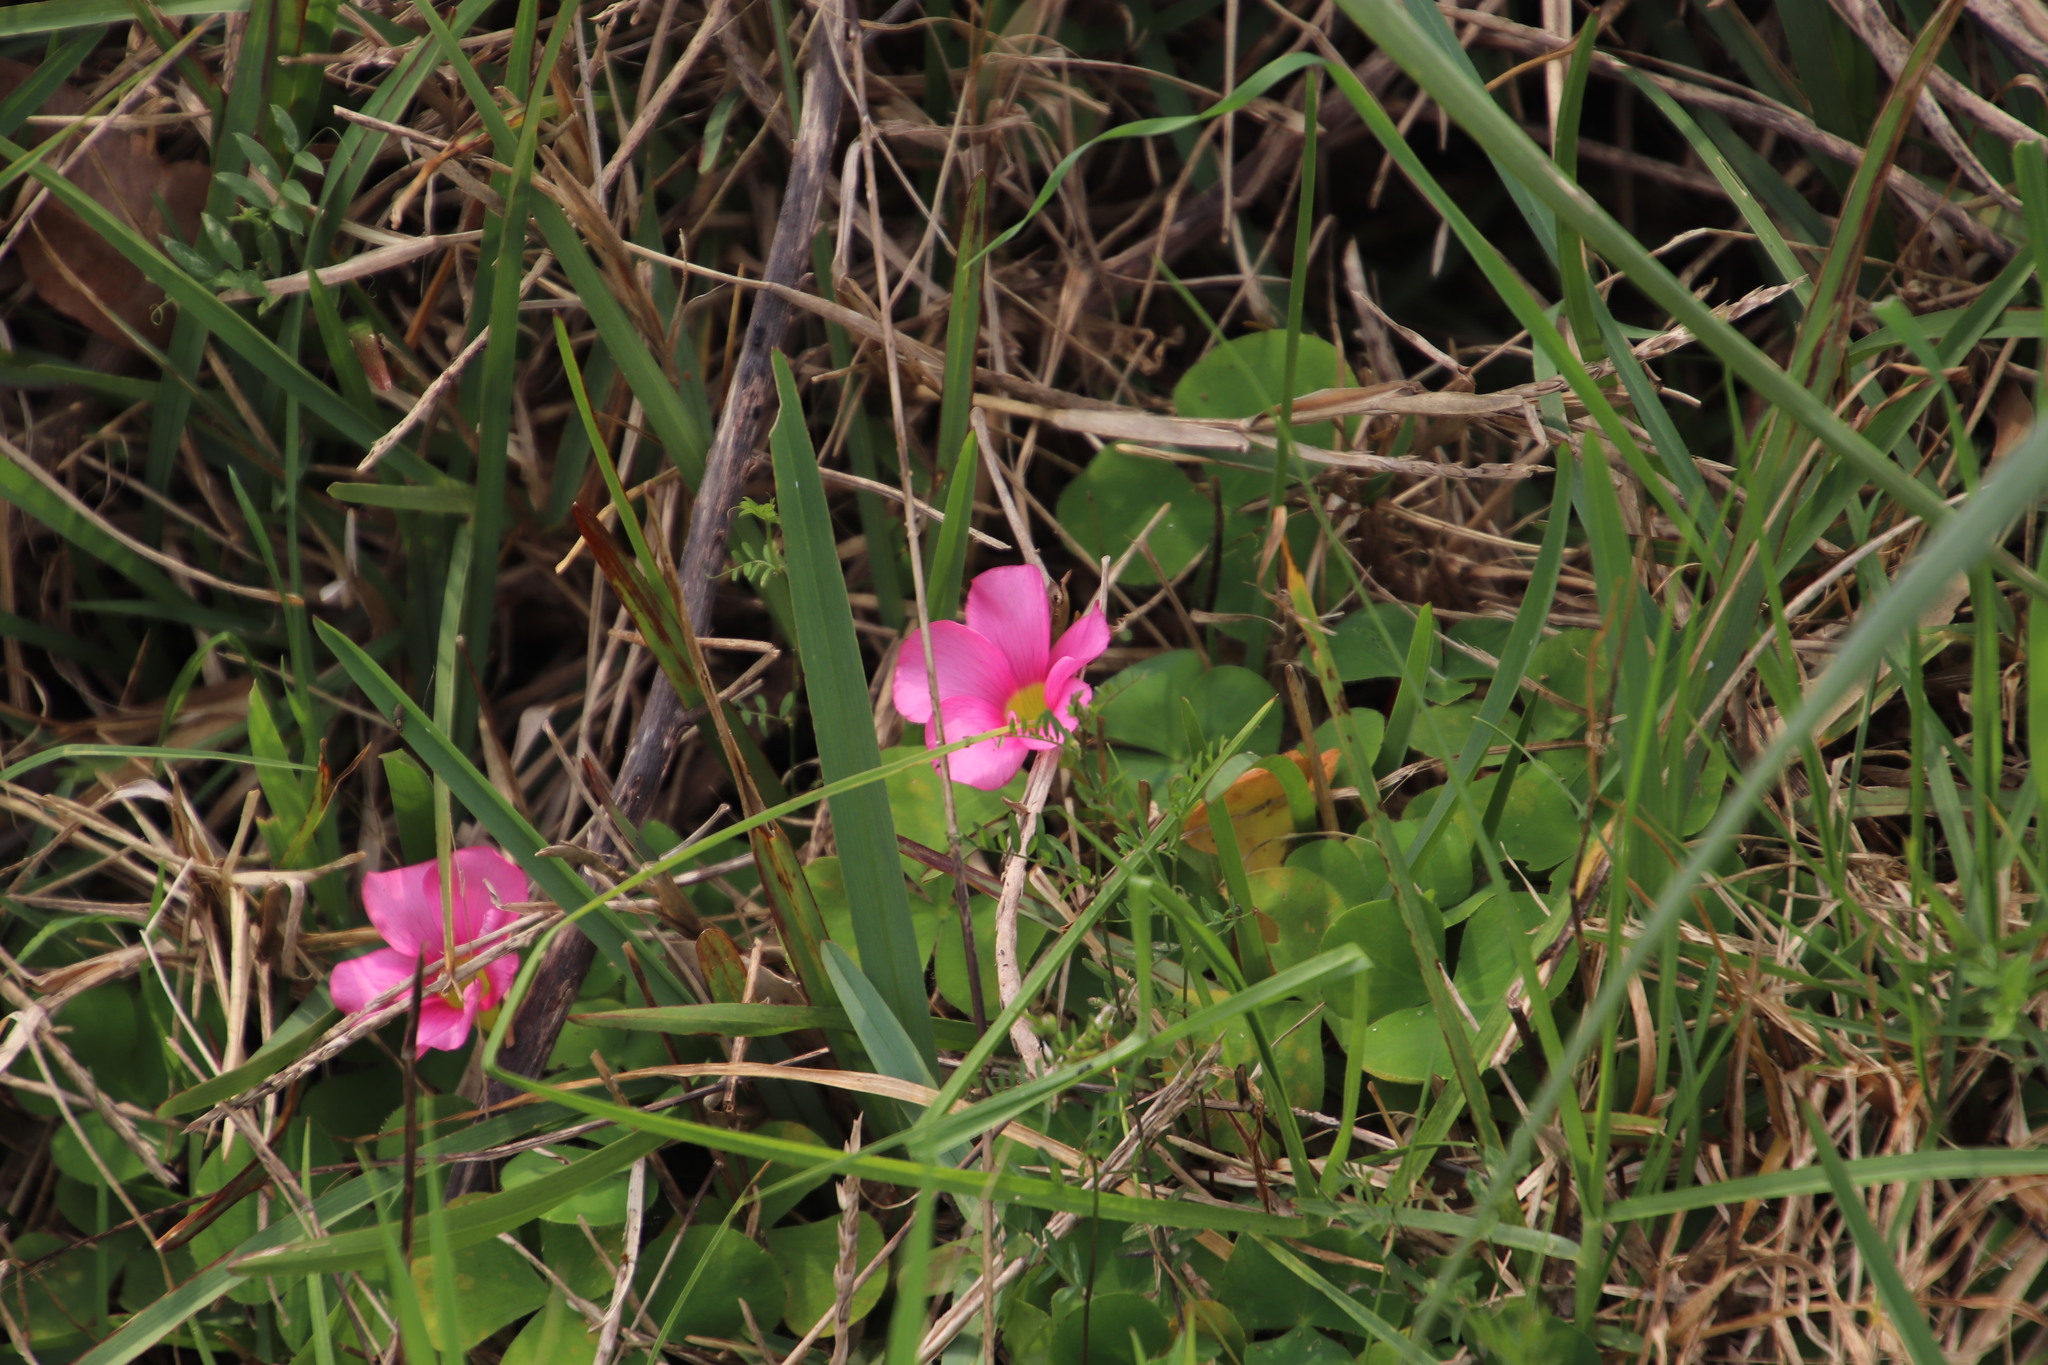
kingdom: Plantae
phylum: Tracheophyta
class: Magnoliopsida
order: Oxalidales
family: Oxalidaceae
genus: Oxalis
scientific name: Oxalis purpurea
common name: Purple woodsorrel
